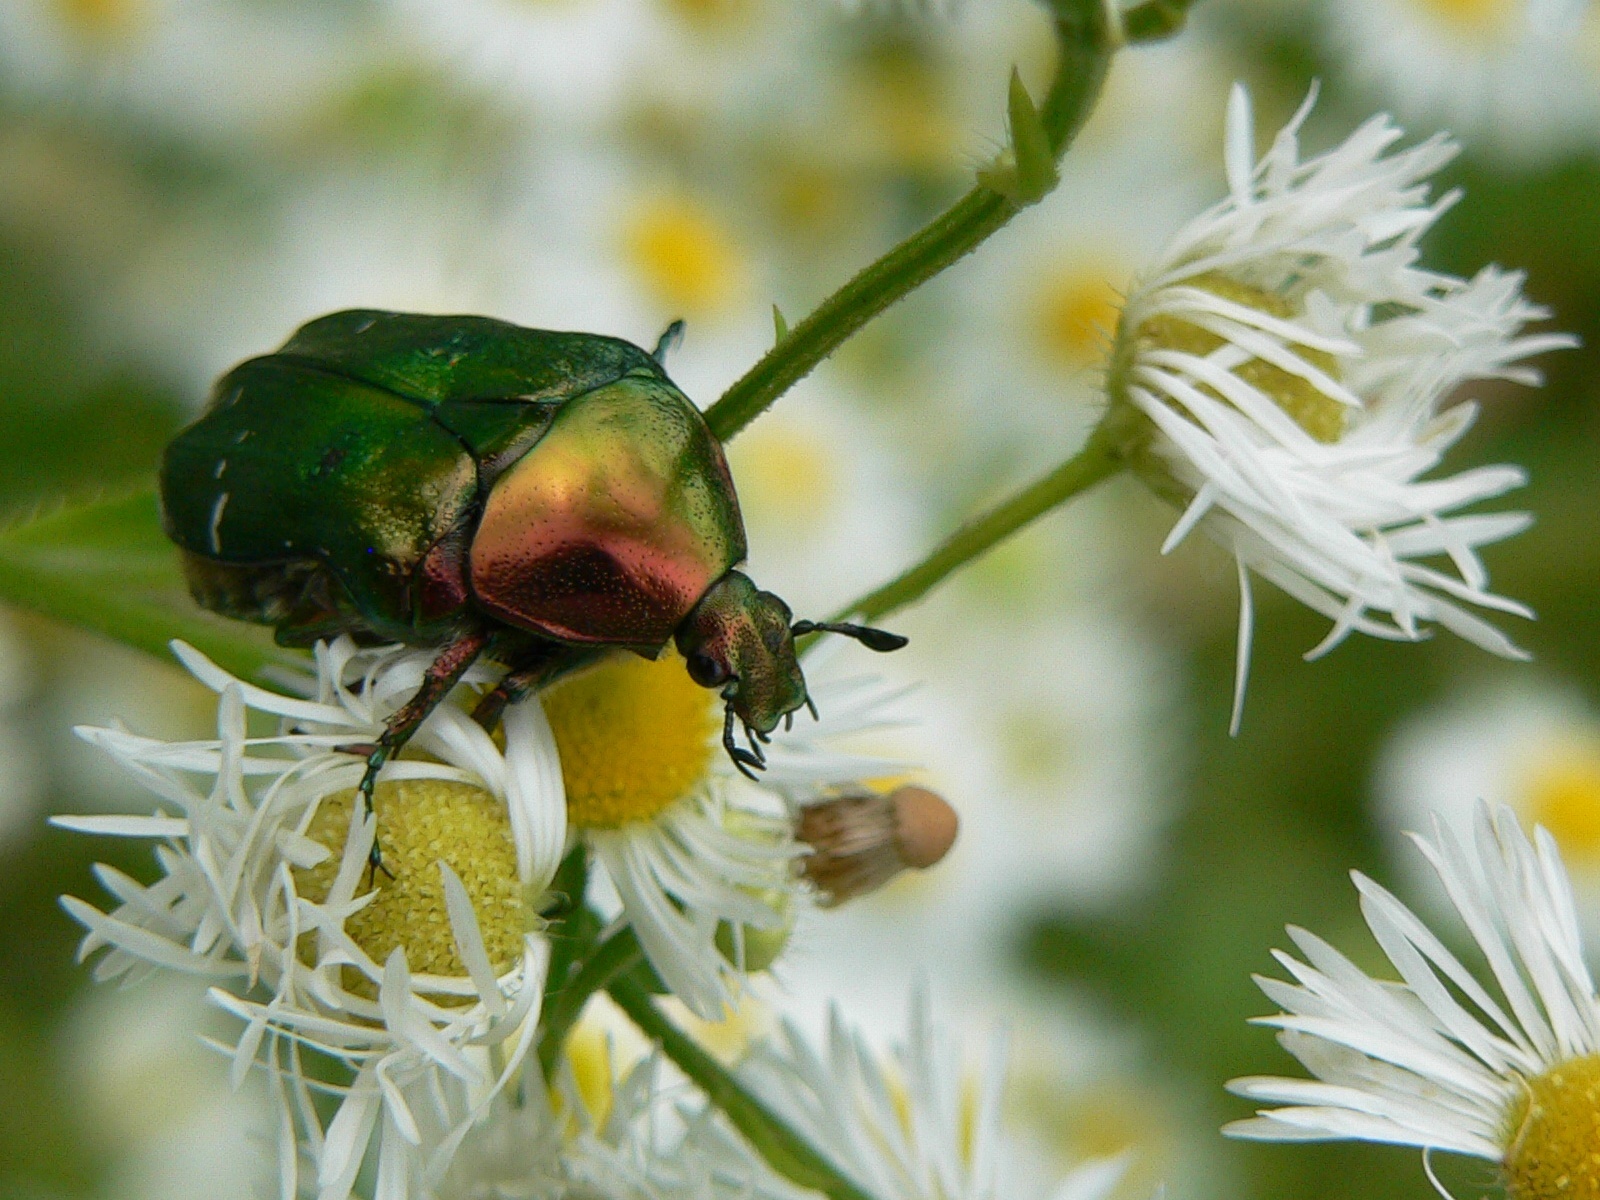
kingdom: Animalia
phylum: Arthropoda
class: Insecta
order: Coleoptera
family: Scarabaeidae
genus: Cetonia
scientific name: Cetonia aurata
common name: Rose chafer
